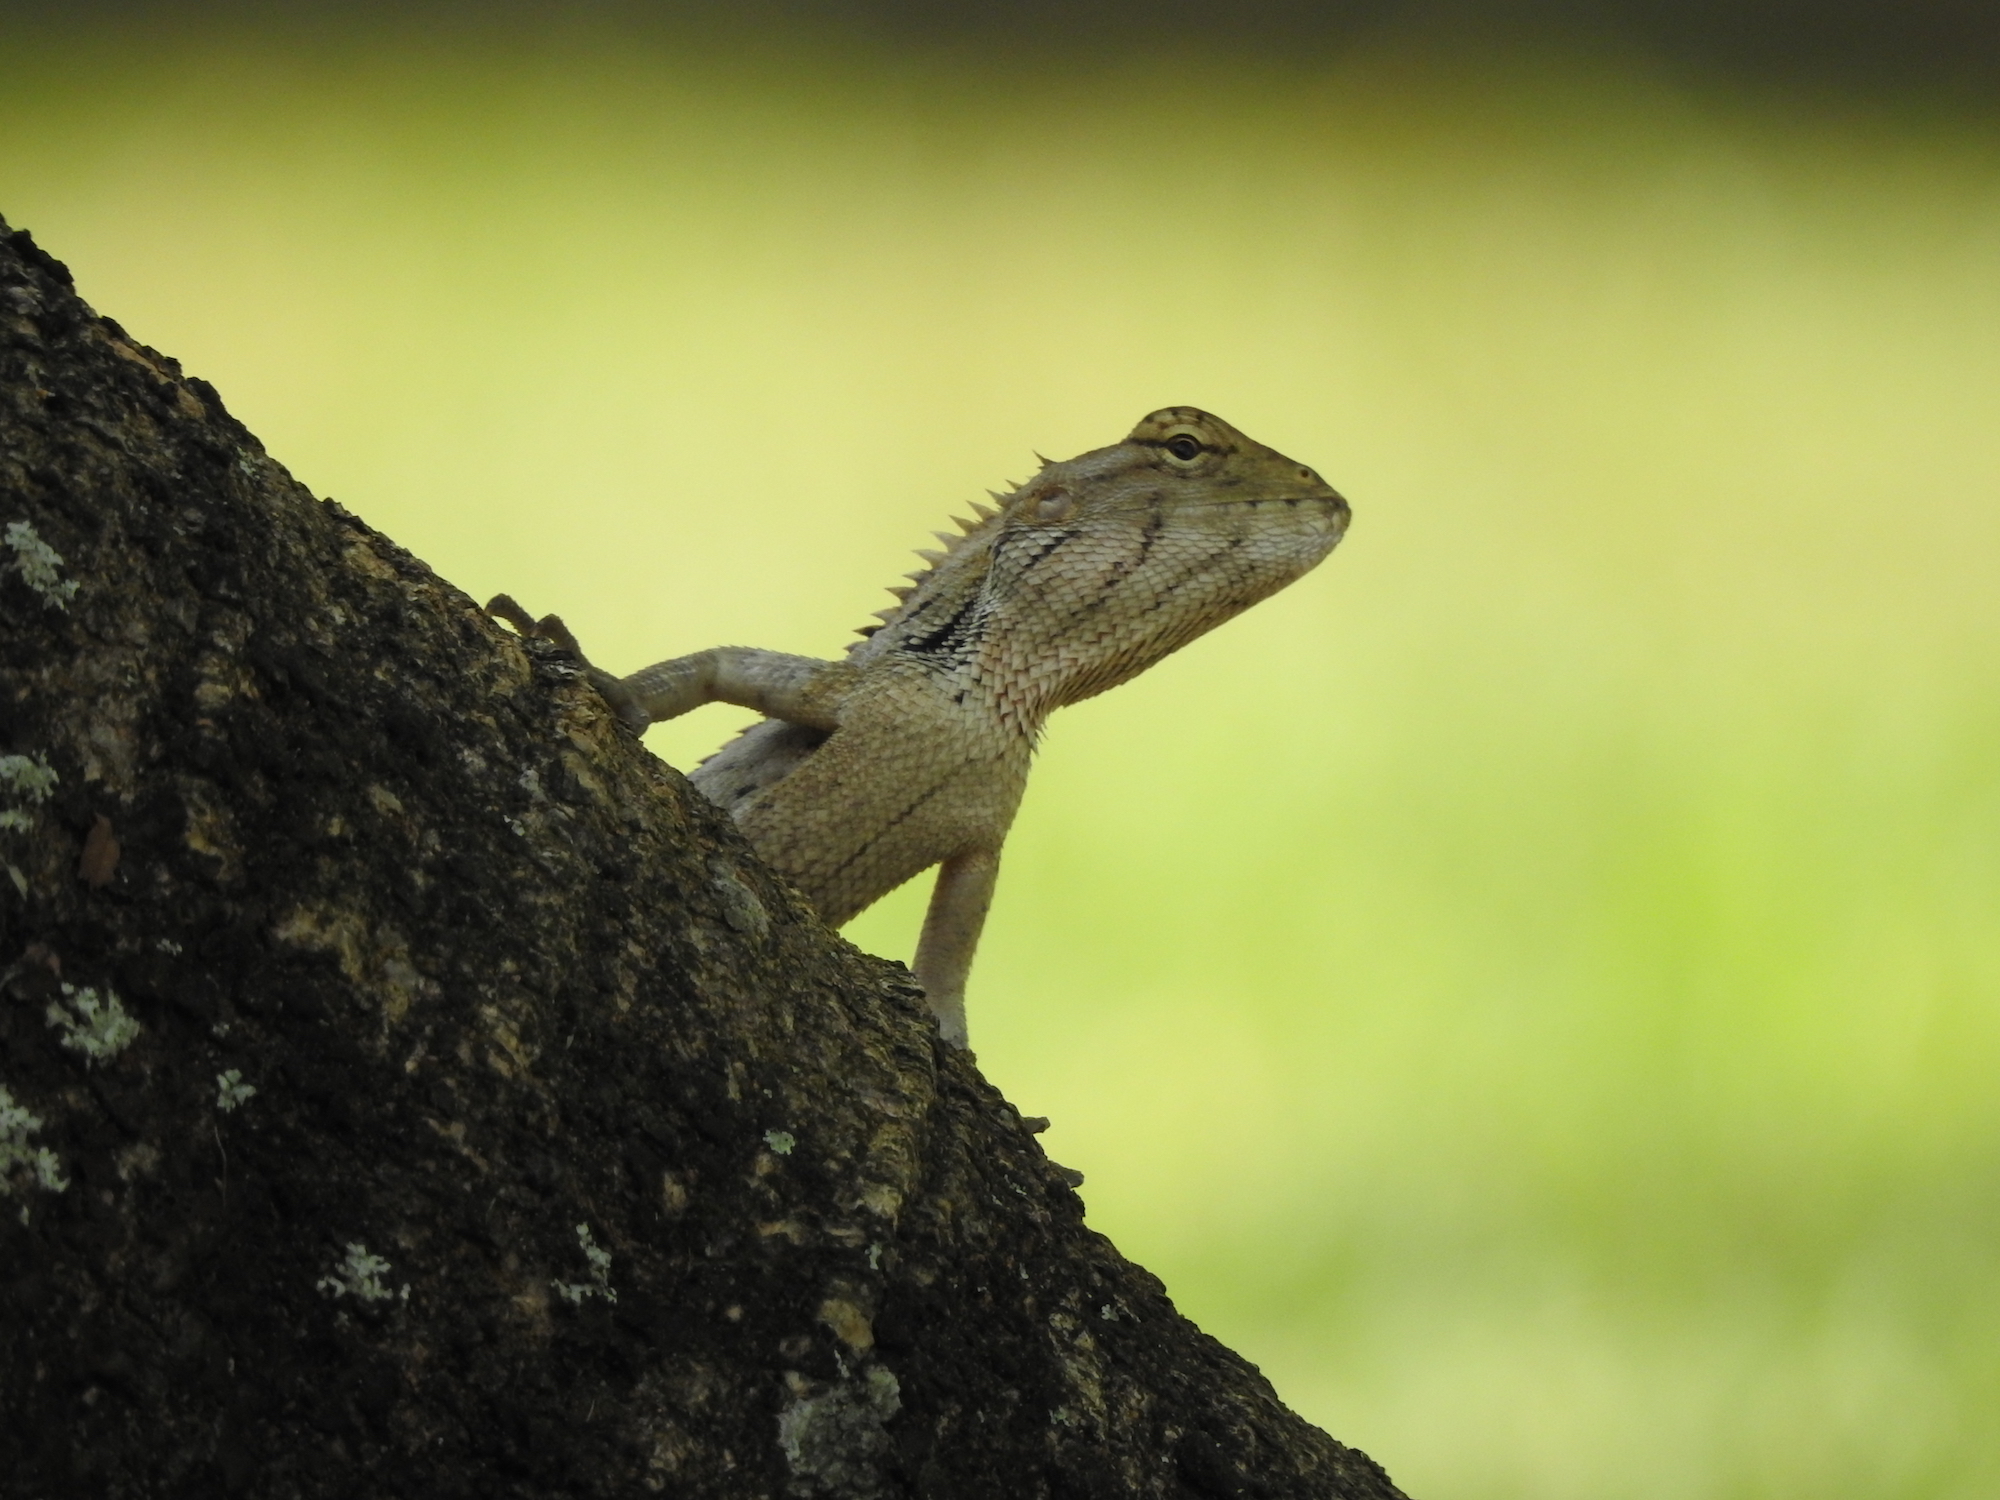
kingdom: Animalia
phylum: Chordata
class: Squamata
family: Agamidae
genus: Calotes
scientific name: Calotes versicolor
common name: Oriental garden lizard
